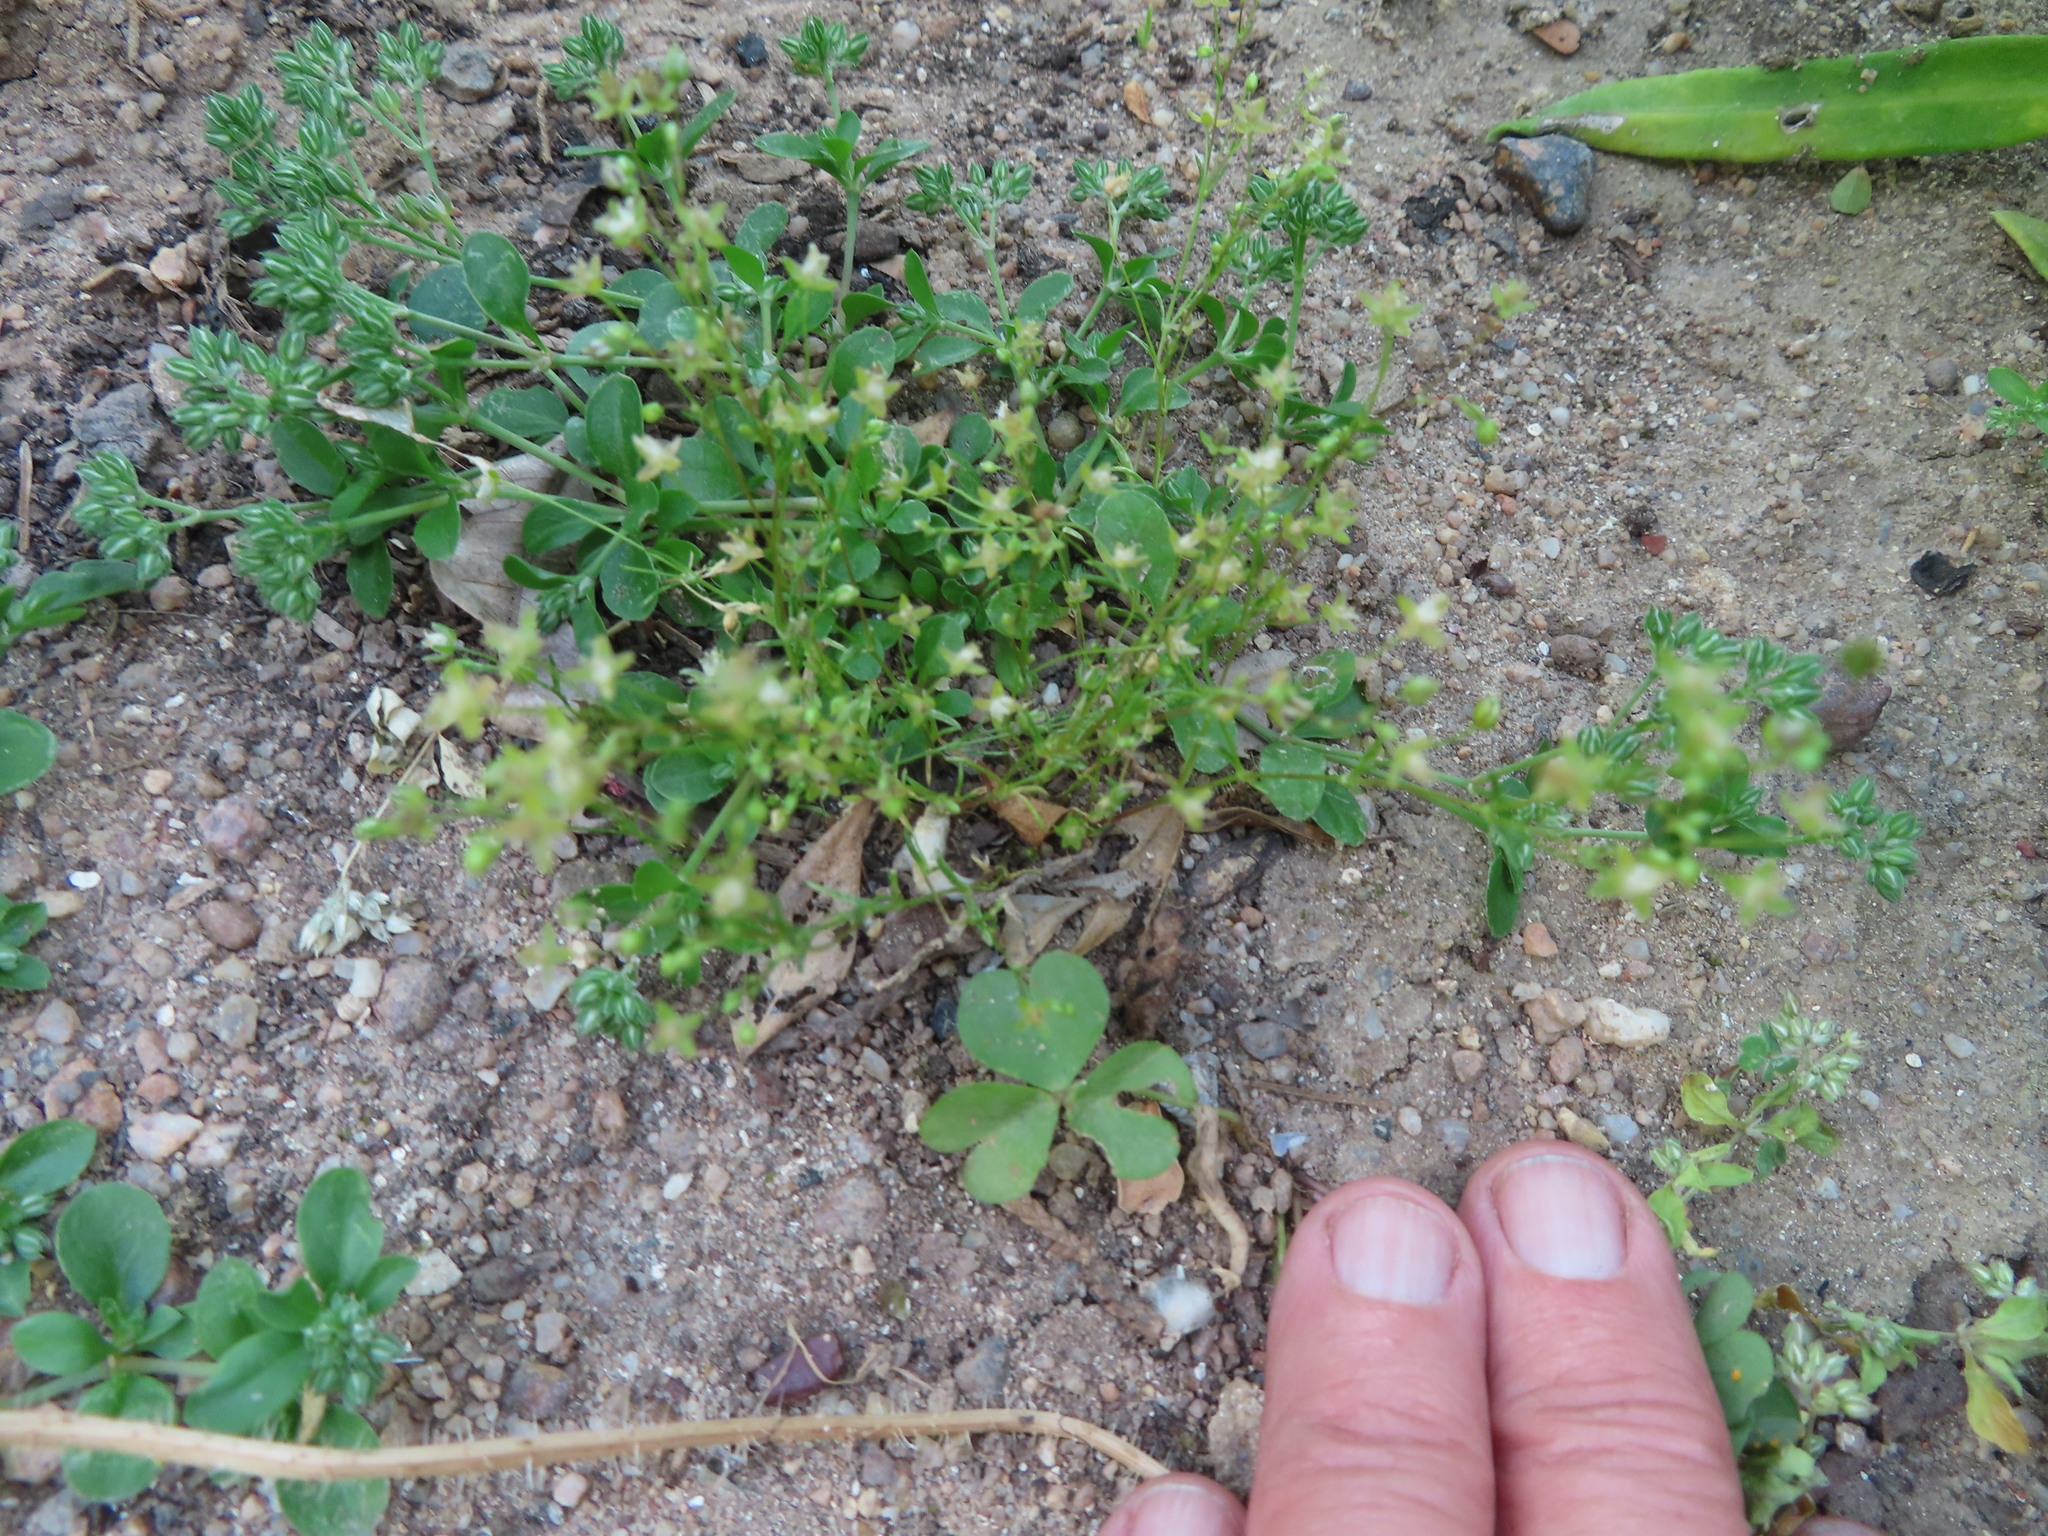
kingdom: Plantae
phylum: Tracheophyta
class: Magnoliopsida
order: Caryophyllales
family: Caryophyllaceae
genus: Polycarpon
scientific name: Polycarpon tetraphyllum
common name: Four-leaved all-seed
